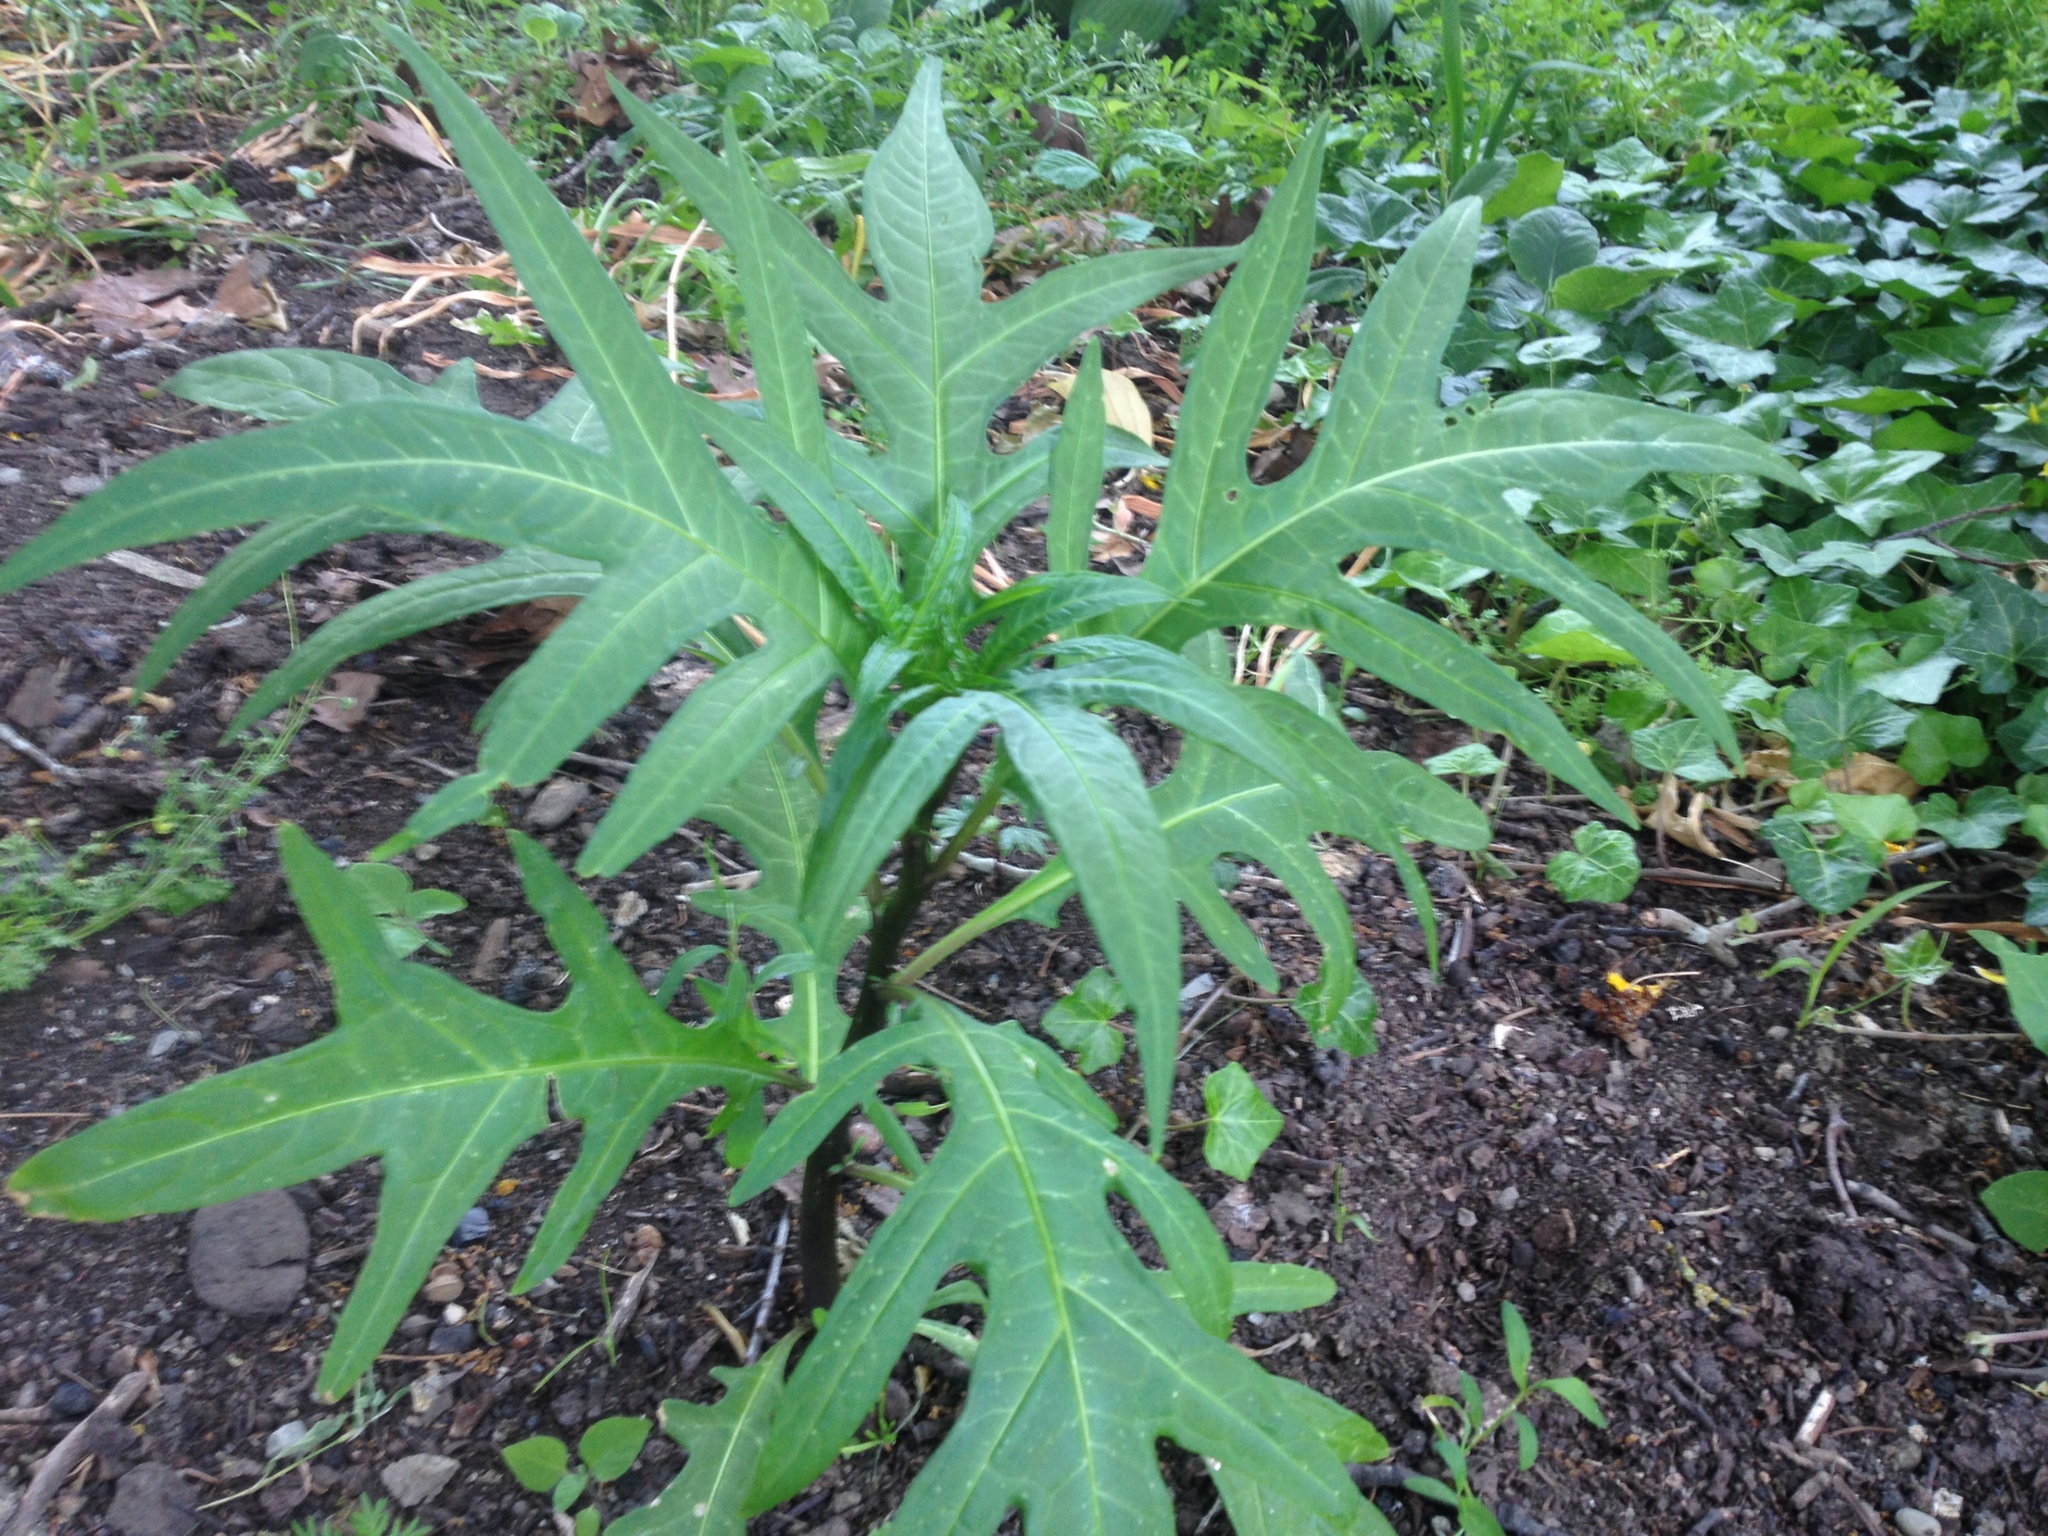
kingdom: Plantae
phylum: Tracheophyta
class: Magnoliopsida
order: Solanales
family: Solanaceae
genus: Solanum
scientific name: Solanum laciniatum
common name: Kangaroo-apple
